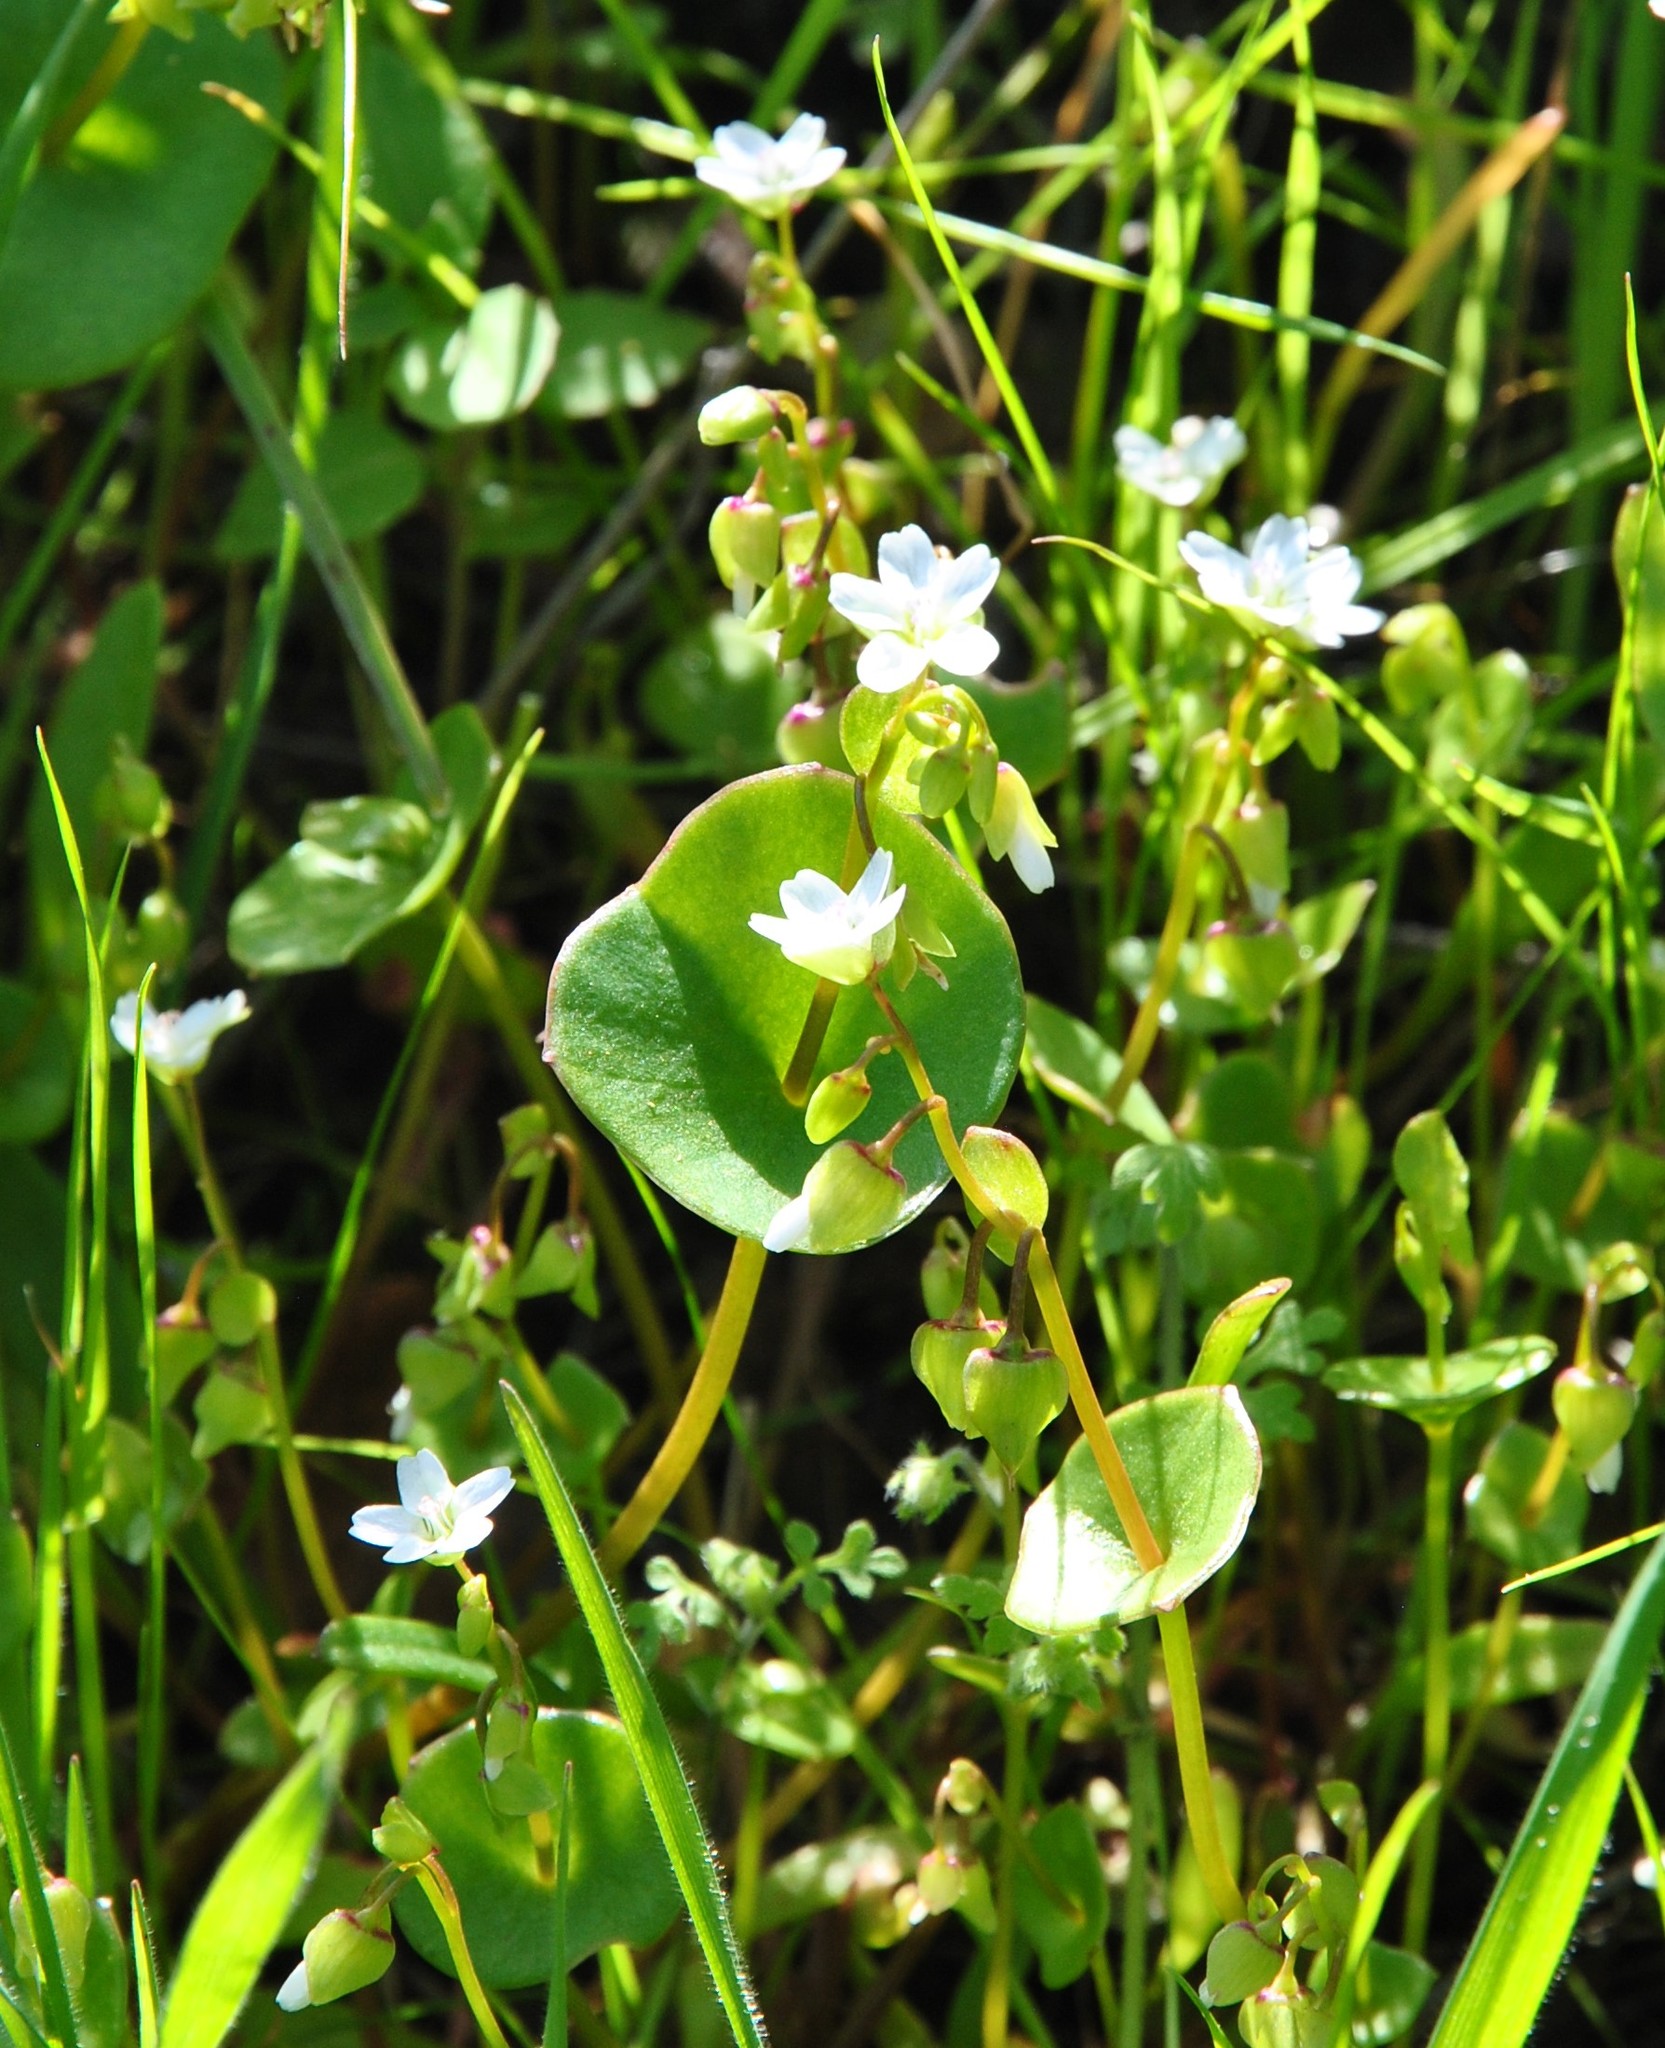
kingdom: Plantae
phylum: Tracheophyta
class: Magnoliopsida
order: Caryophyllales
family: Montiaceae
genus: Claytonia
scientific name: Claytonia perfoliata
